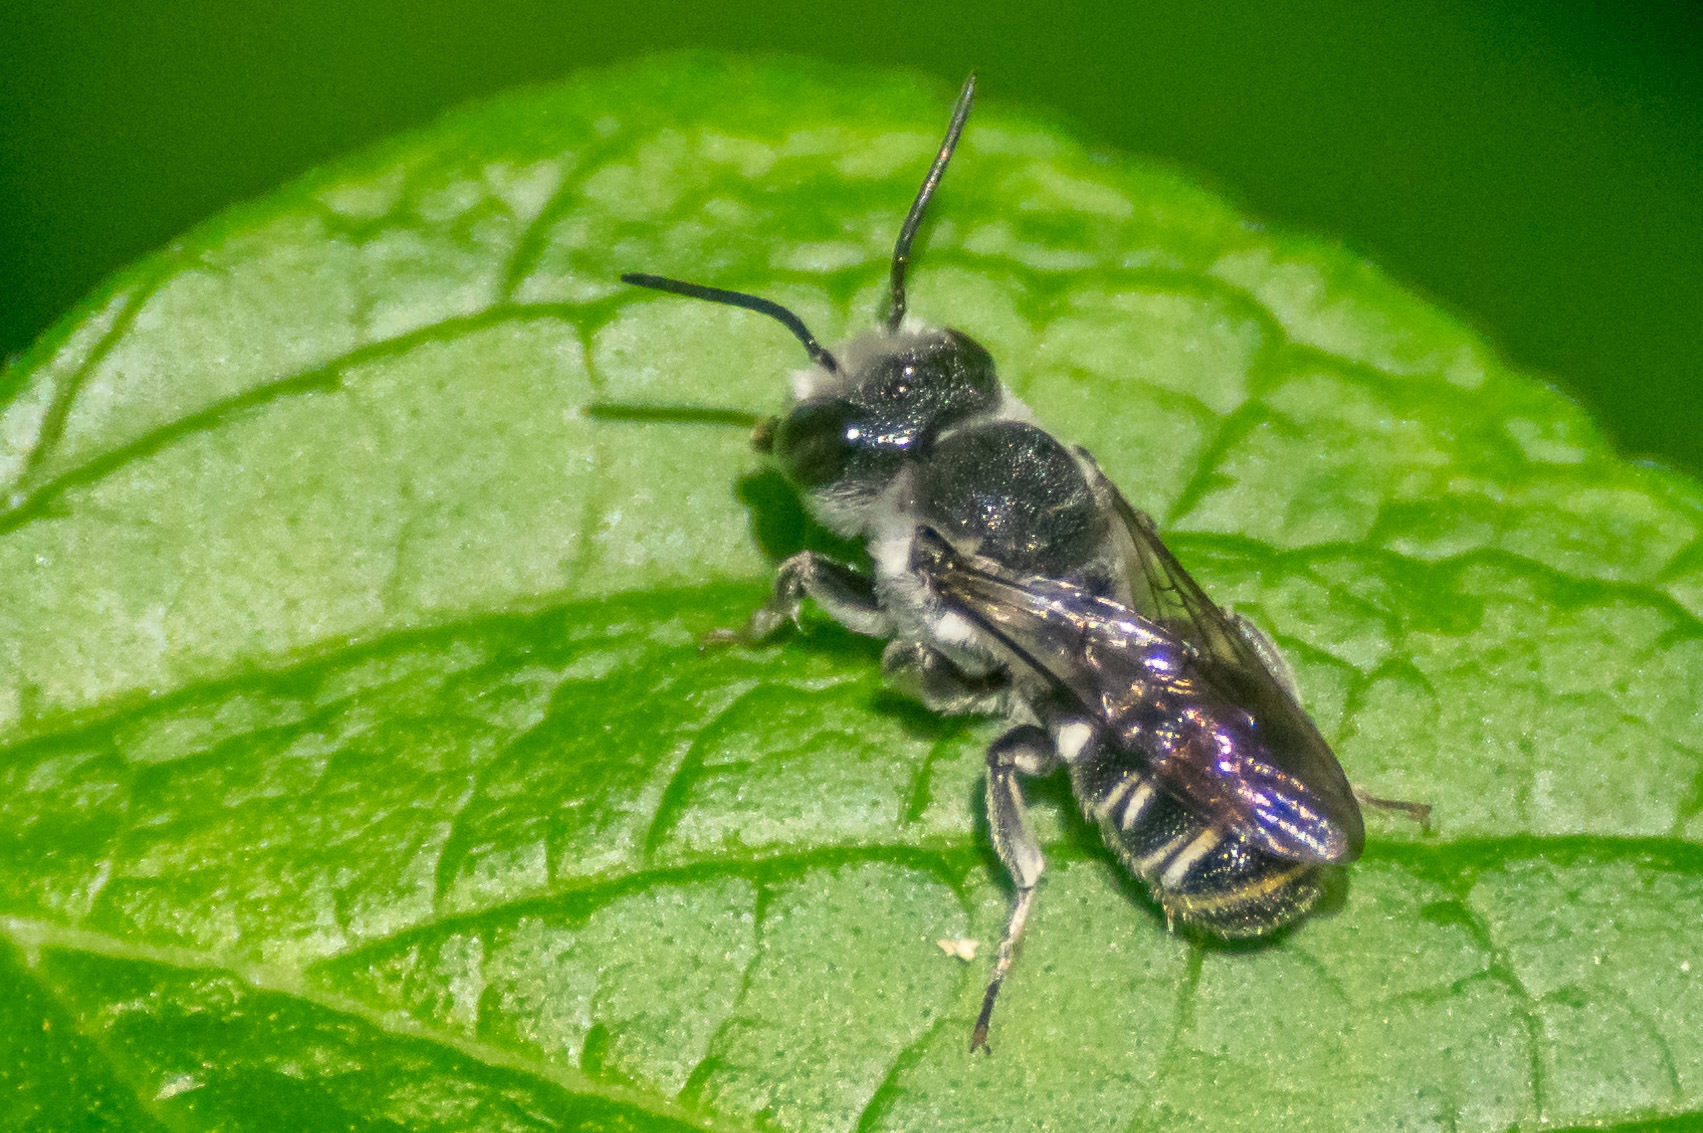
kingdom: Animalia
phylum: Arthropoda
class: Insecta
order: Hymenoptera
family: Megachilidae
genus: Megachile
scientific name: Megachile campanulae
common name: Bellflower resin bee
